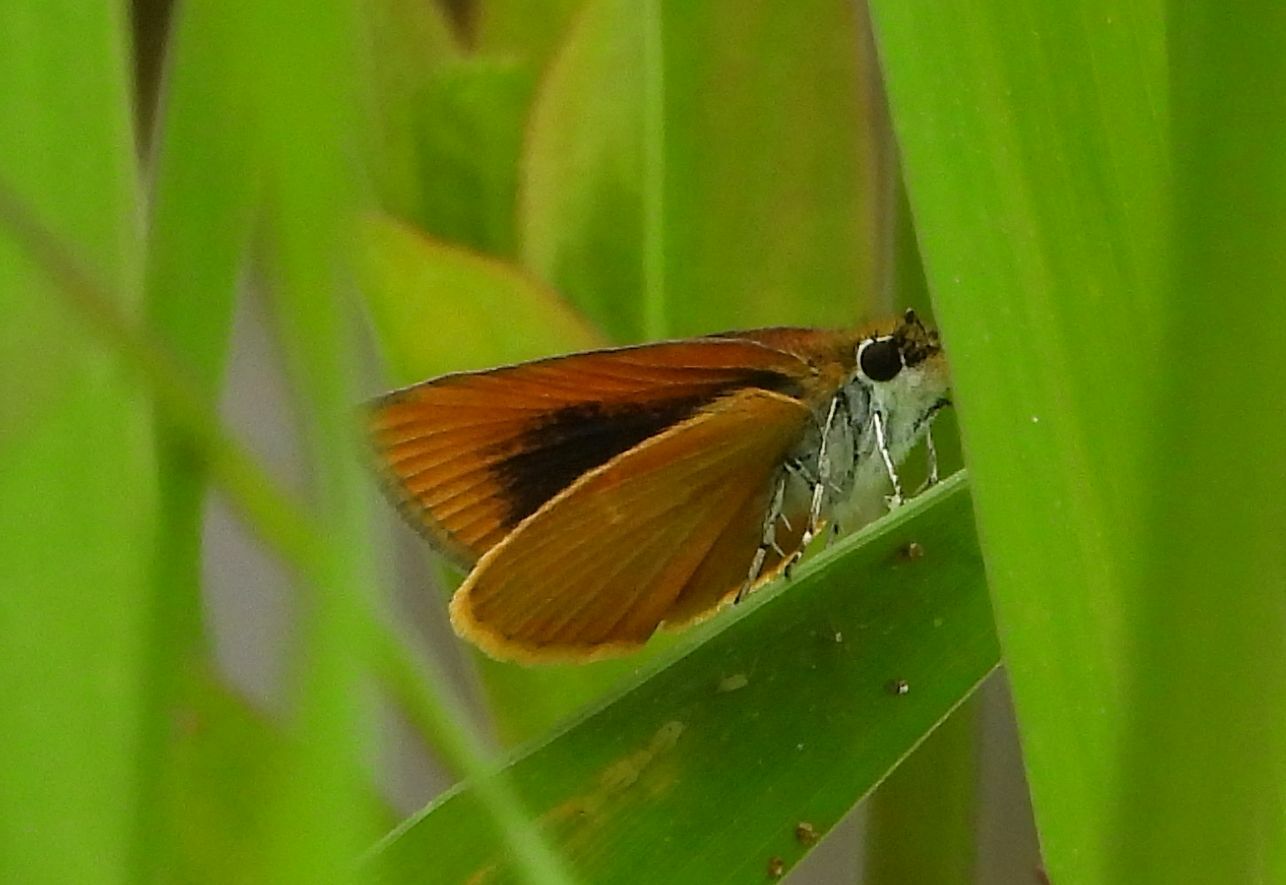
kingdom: Animalia
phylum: Arthropoda
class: Insecta
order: Lepidoptera
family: Hesperiidae
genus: Ancyloxypha
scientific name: Ancyloxypha numitor
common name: Least skipper
